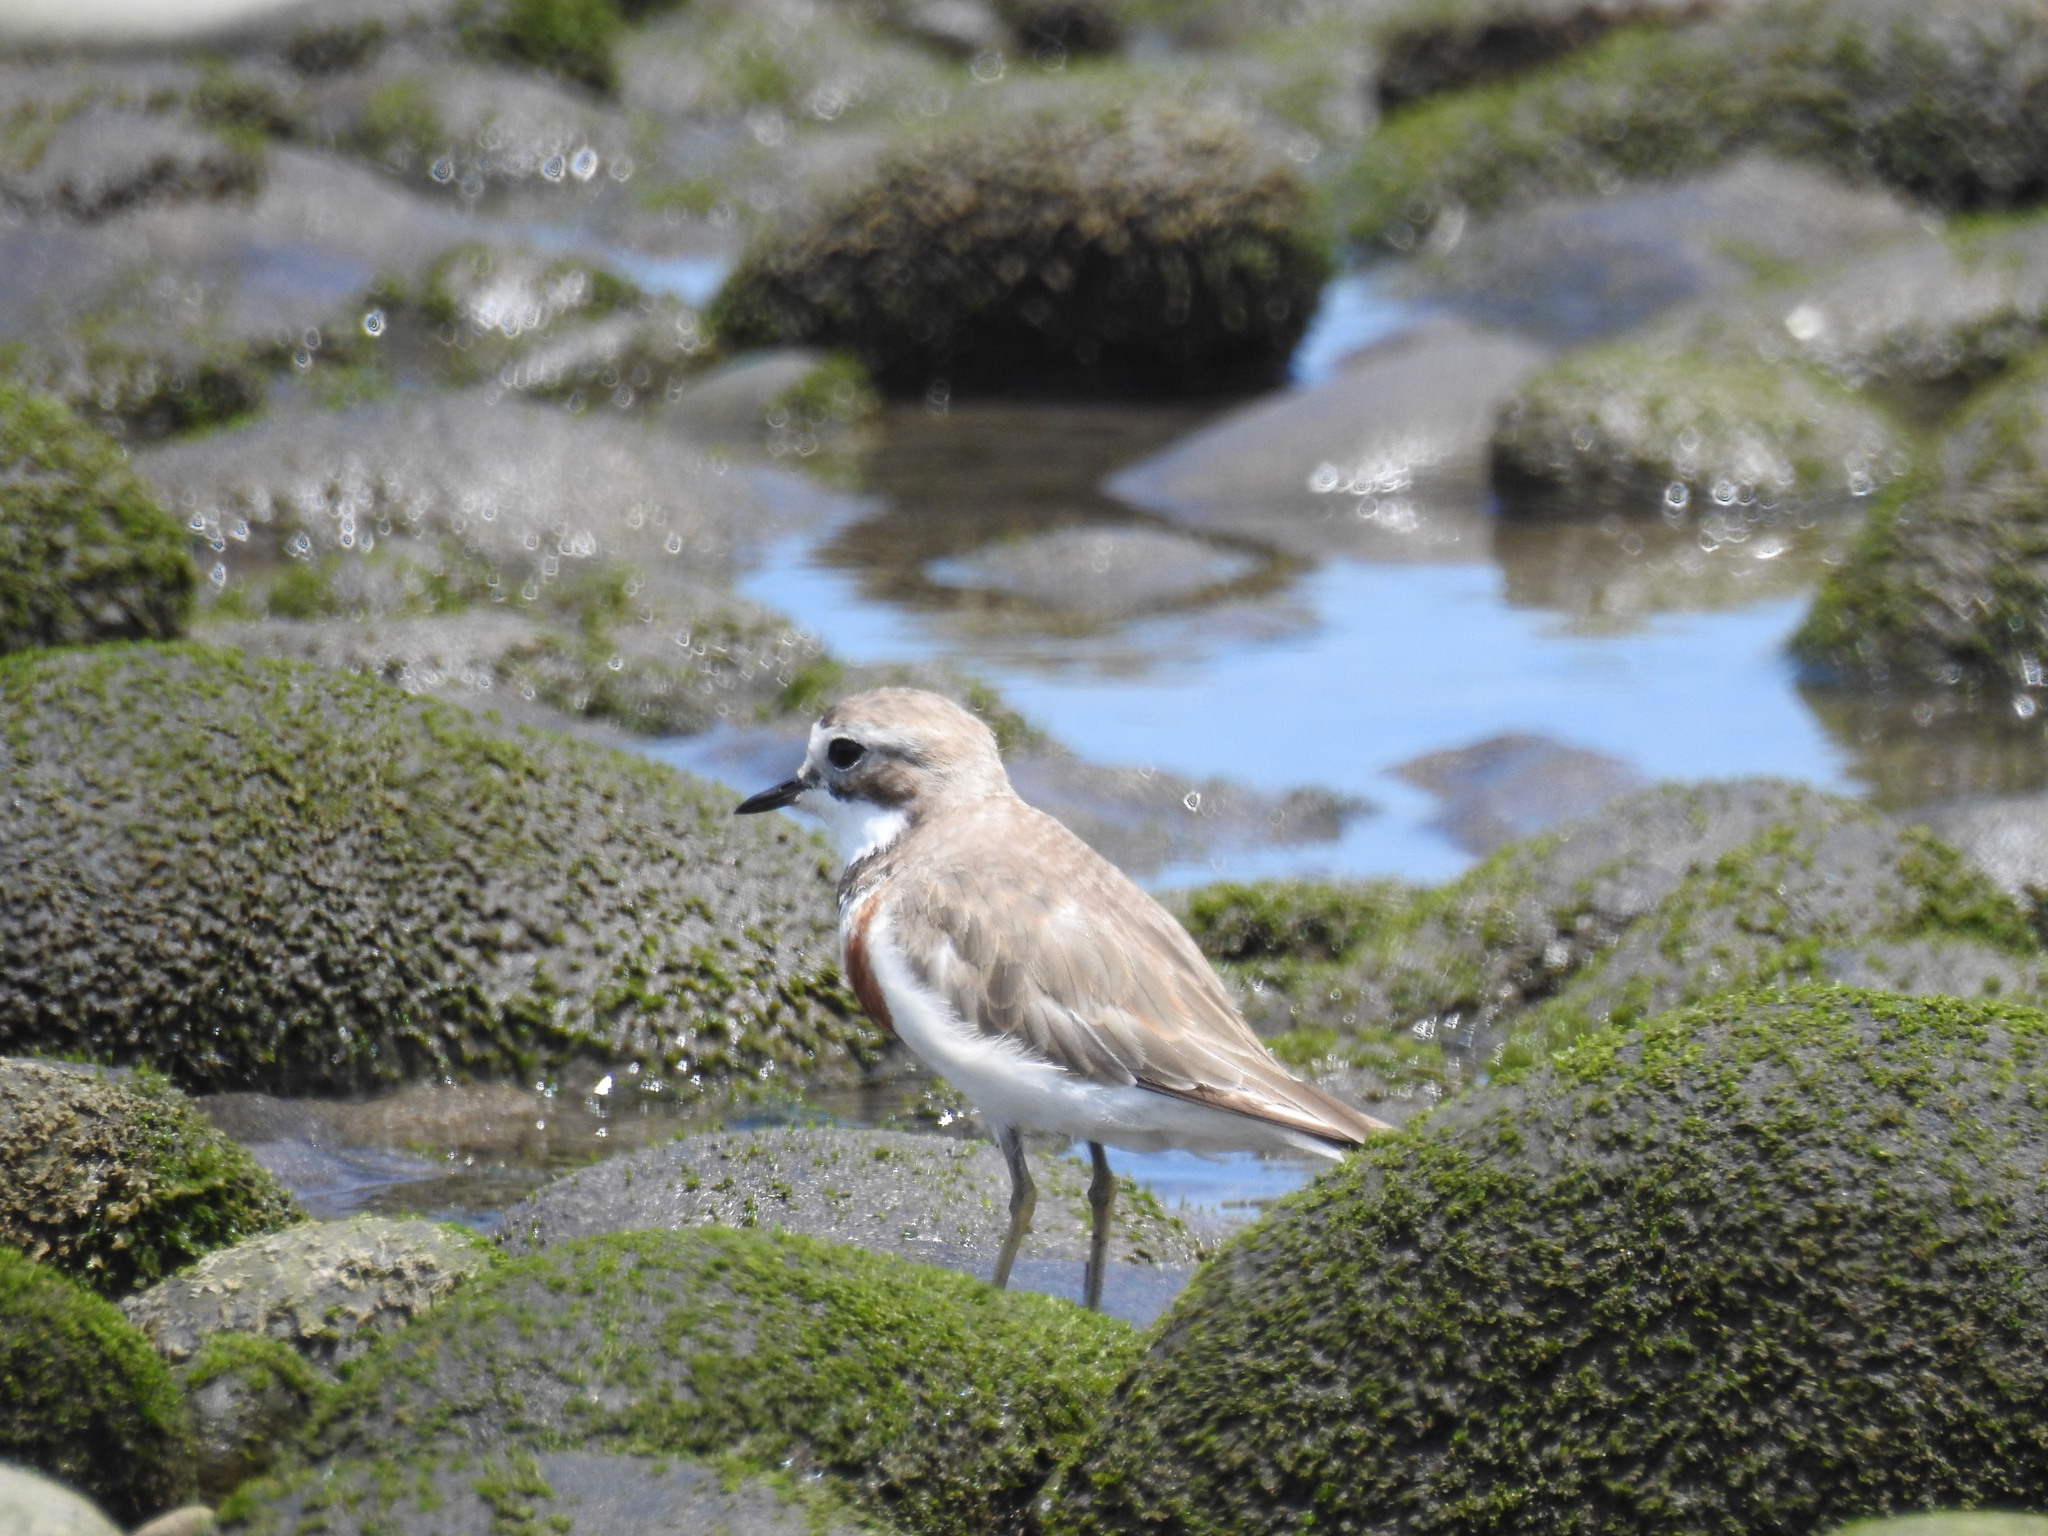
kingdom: Animalia
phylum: Chordata
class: Aves
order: Charadriiformes
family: Charadriidae
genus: Anarhynchus
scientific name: Anarhynchus
